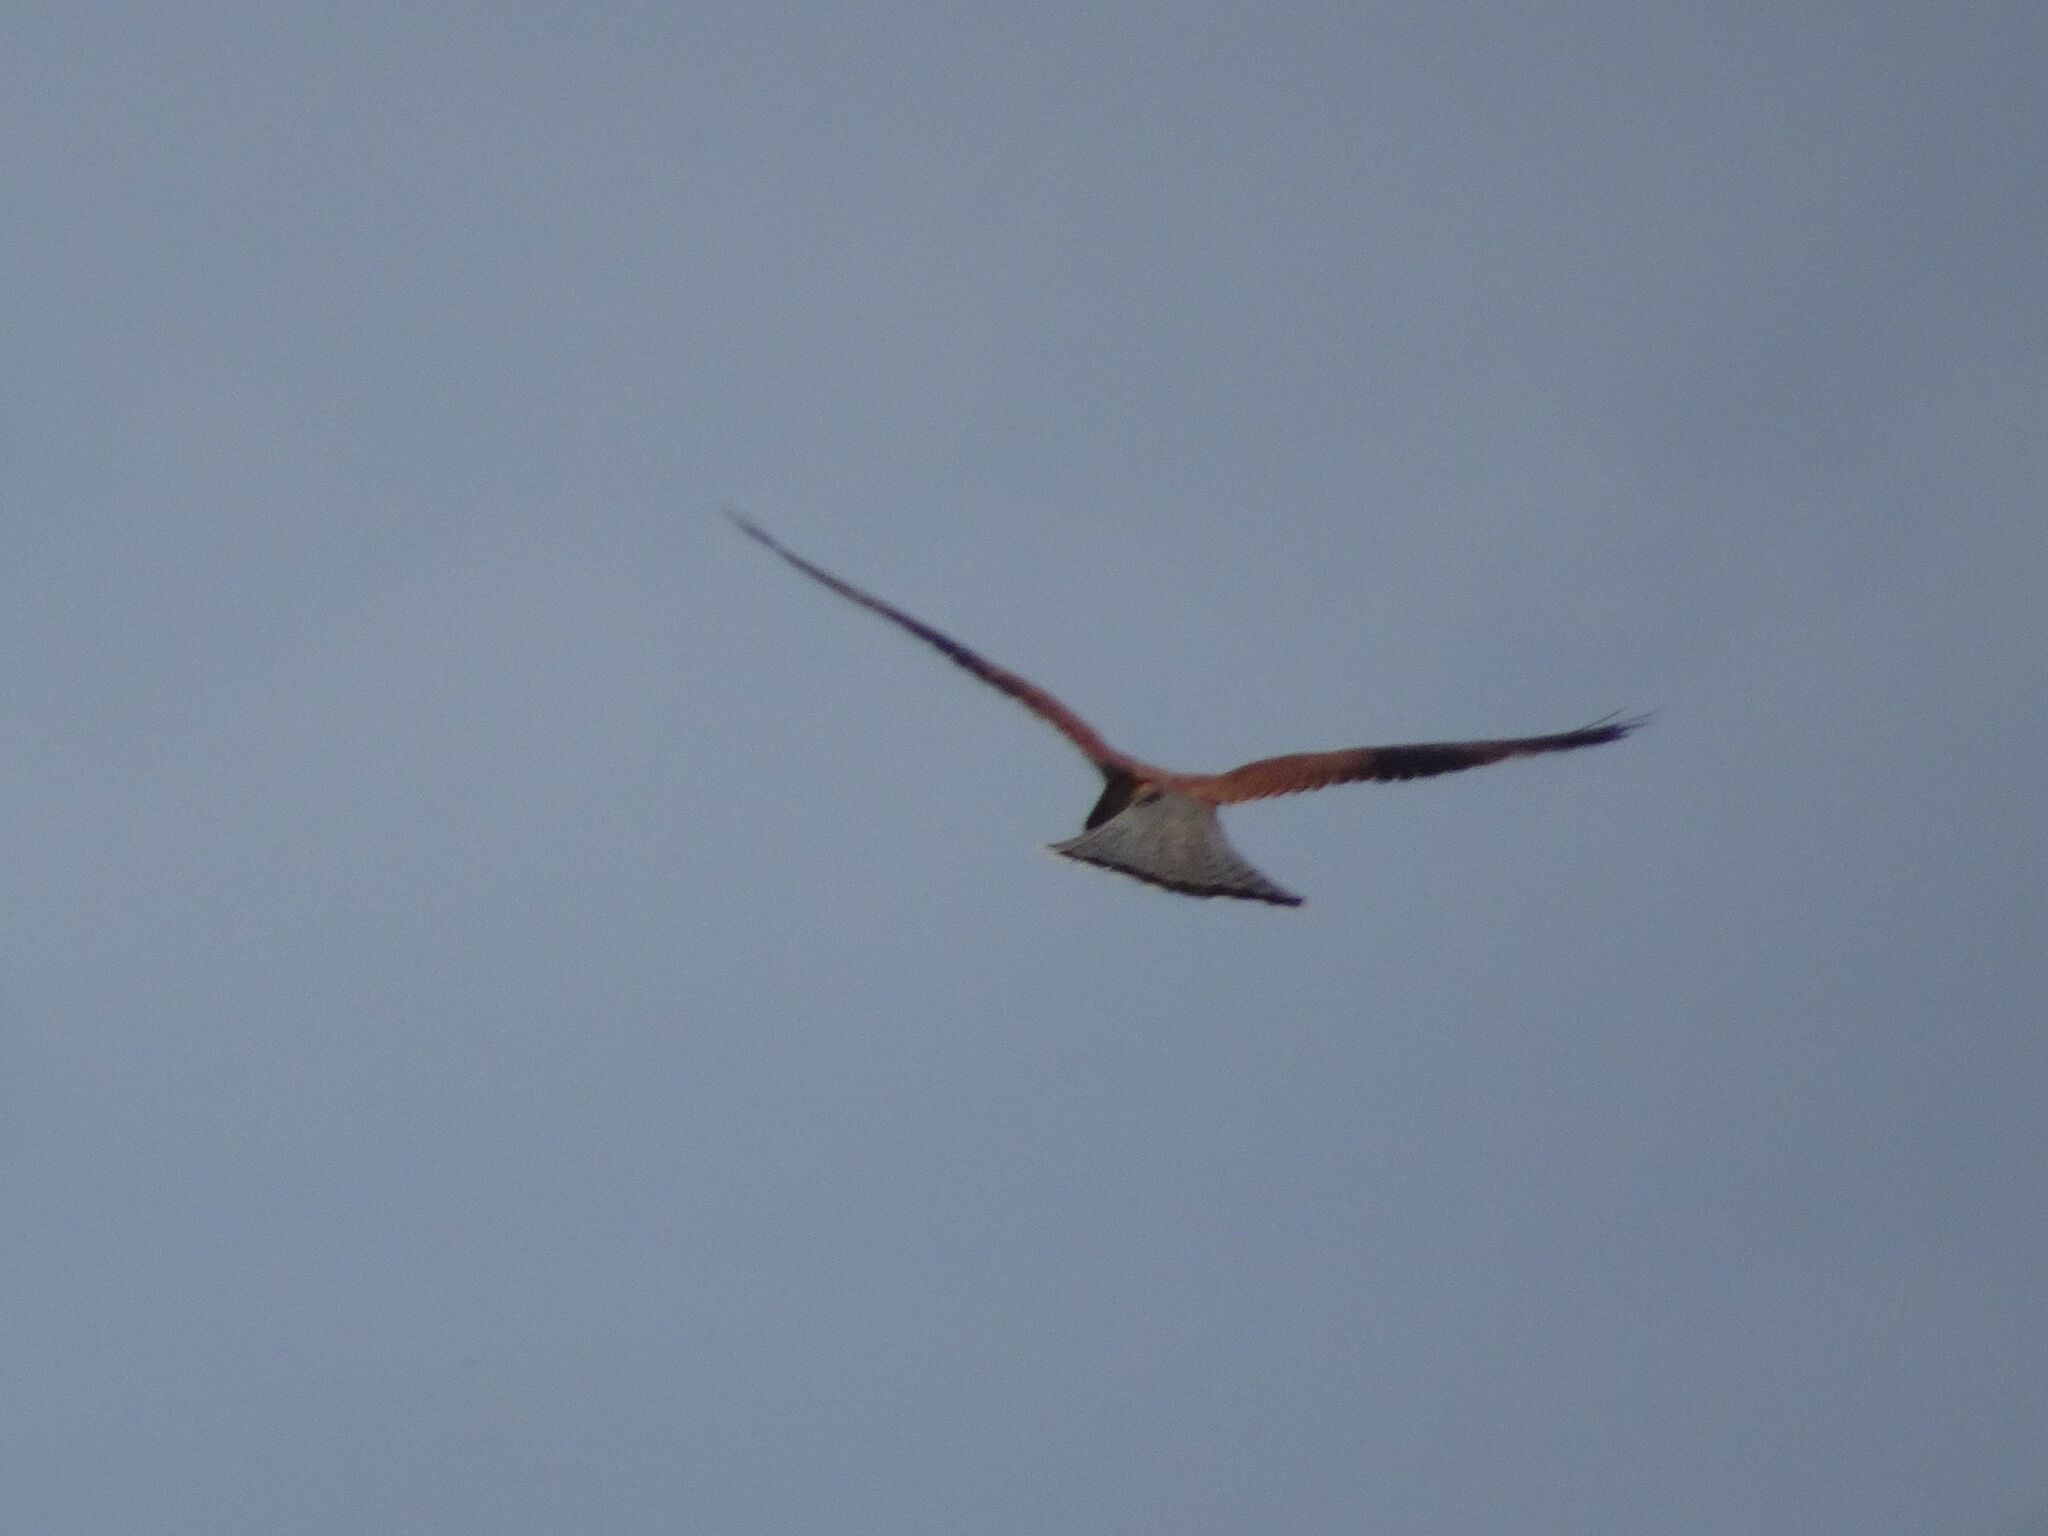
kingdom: Animalia
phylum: Chordata
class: Aves
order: Falconiformes
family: Falconidae
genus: Falco
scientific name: Falco rupicolus
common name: Rock kestrel
